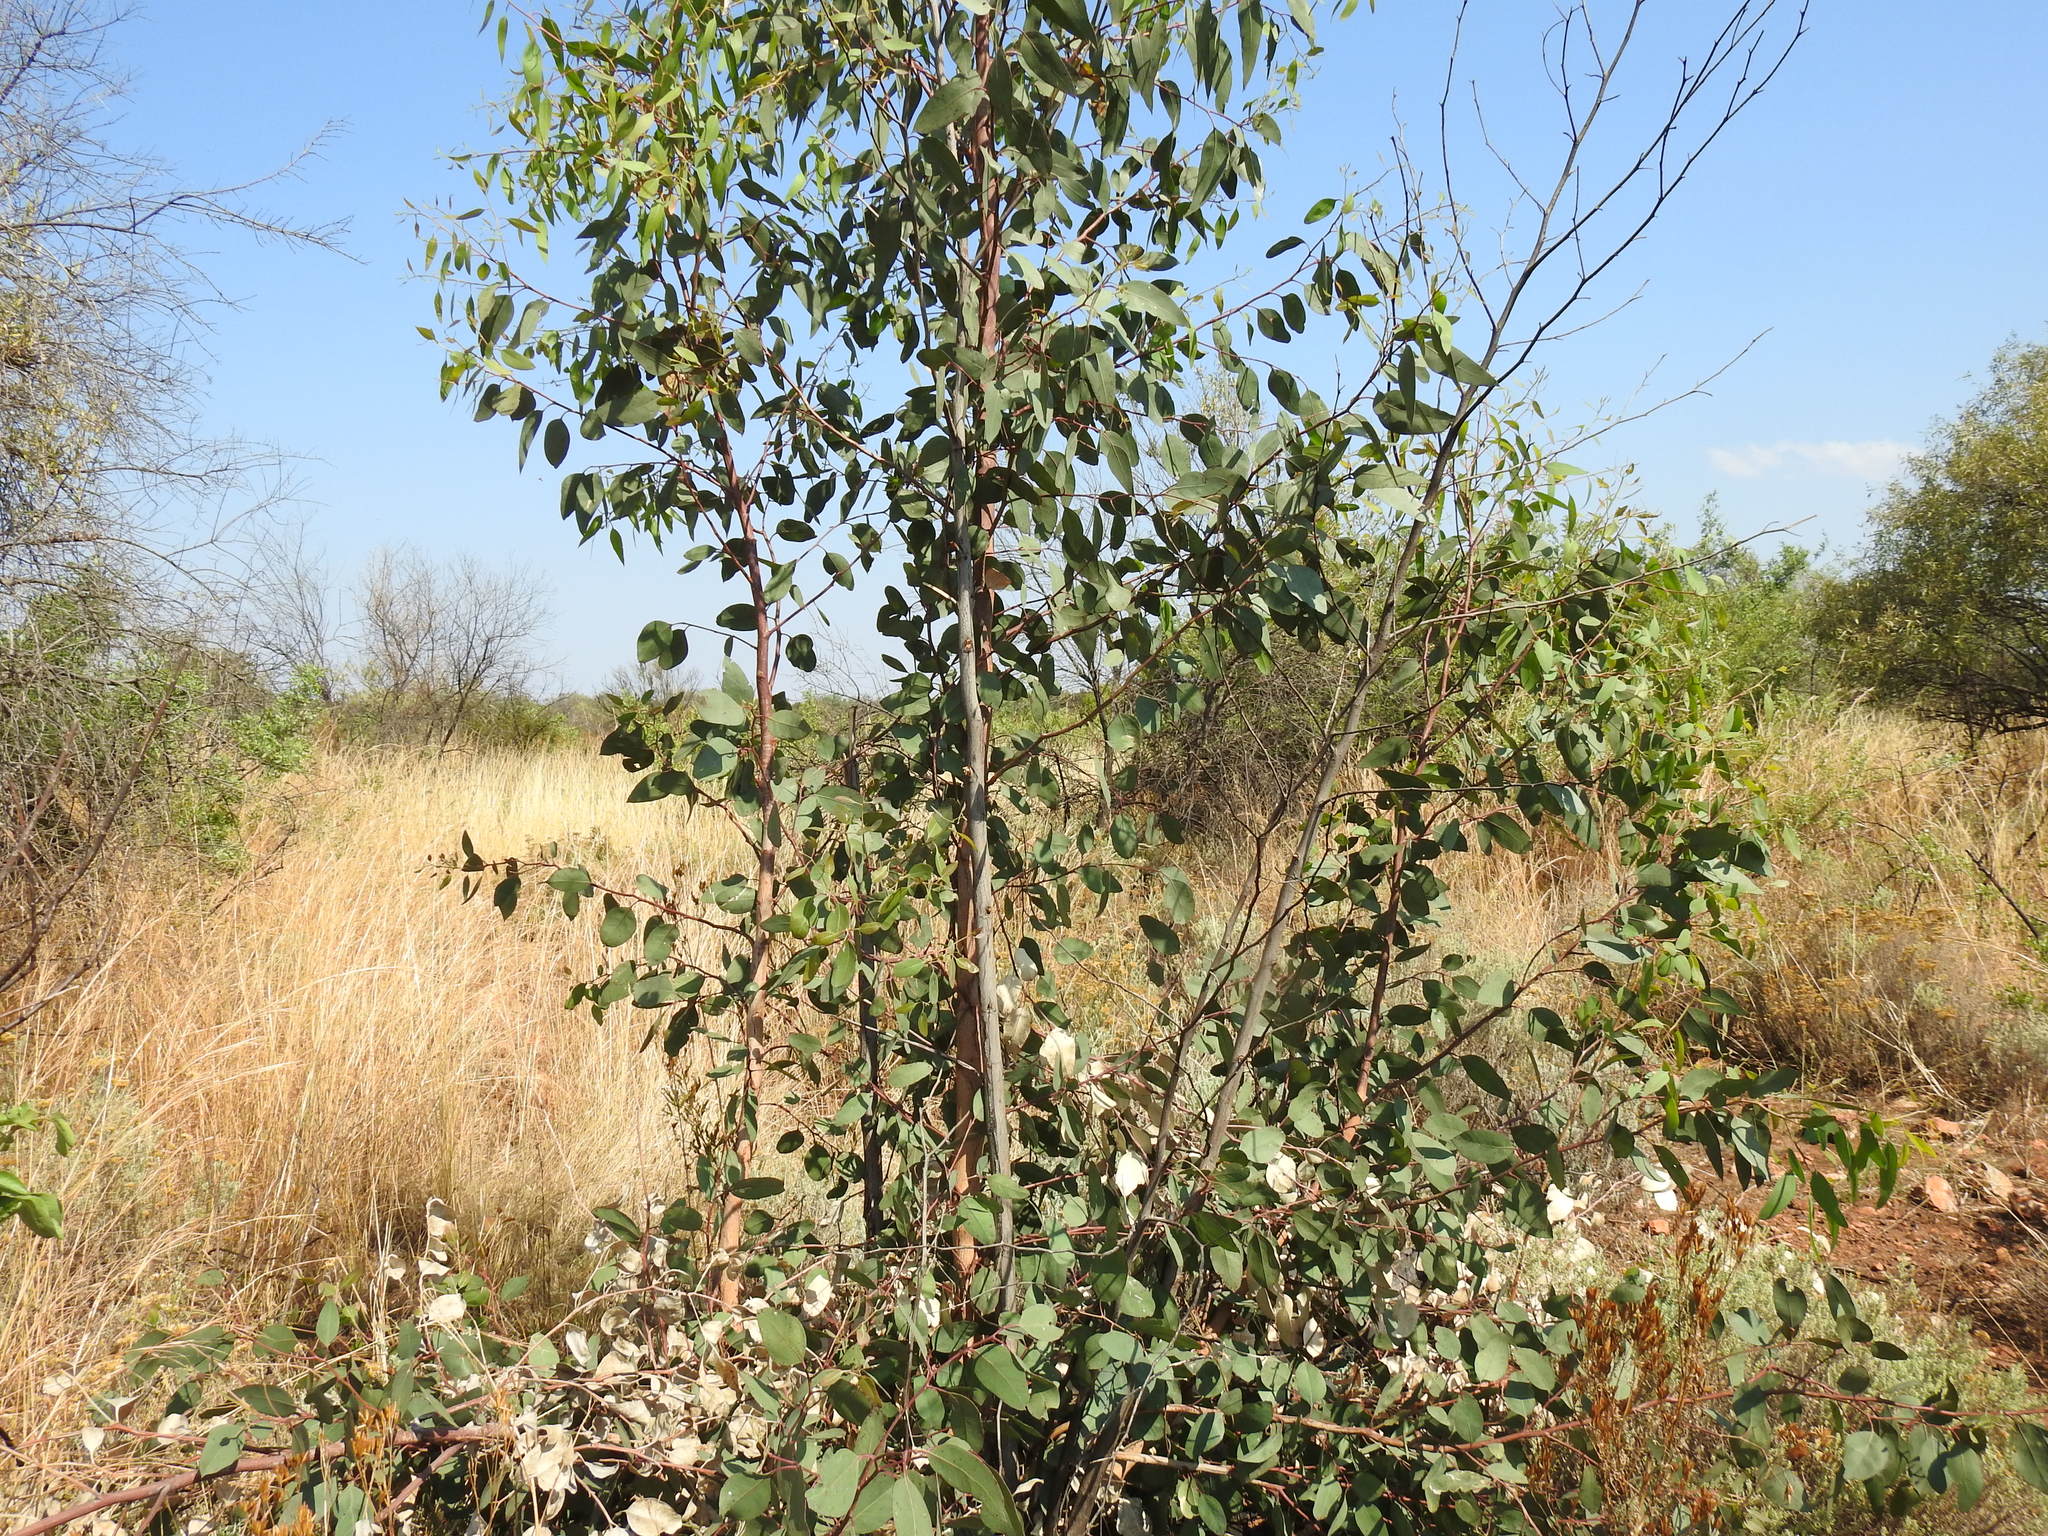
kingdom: Plantae
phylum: Tracheophyta
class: Magnoliopsida
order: Myrtales
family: Myrtaceae
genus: Eucalyptus
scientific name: Eucalyptus camaldulensis
